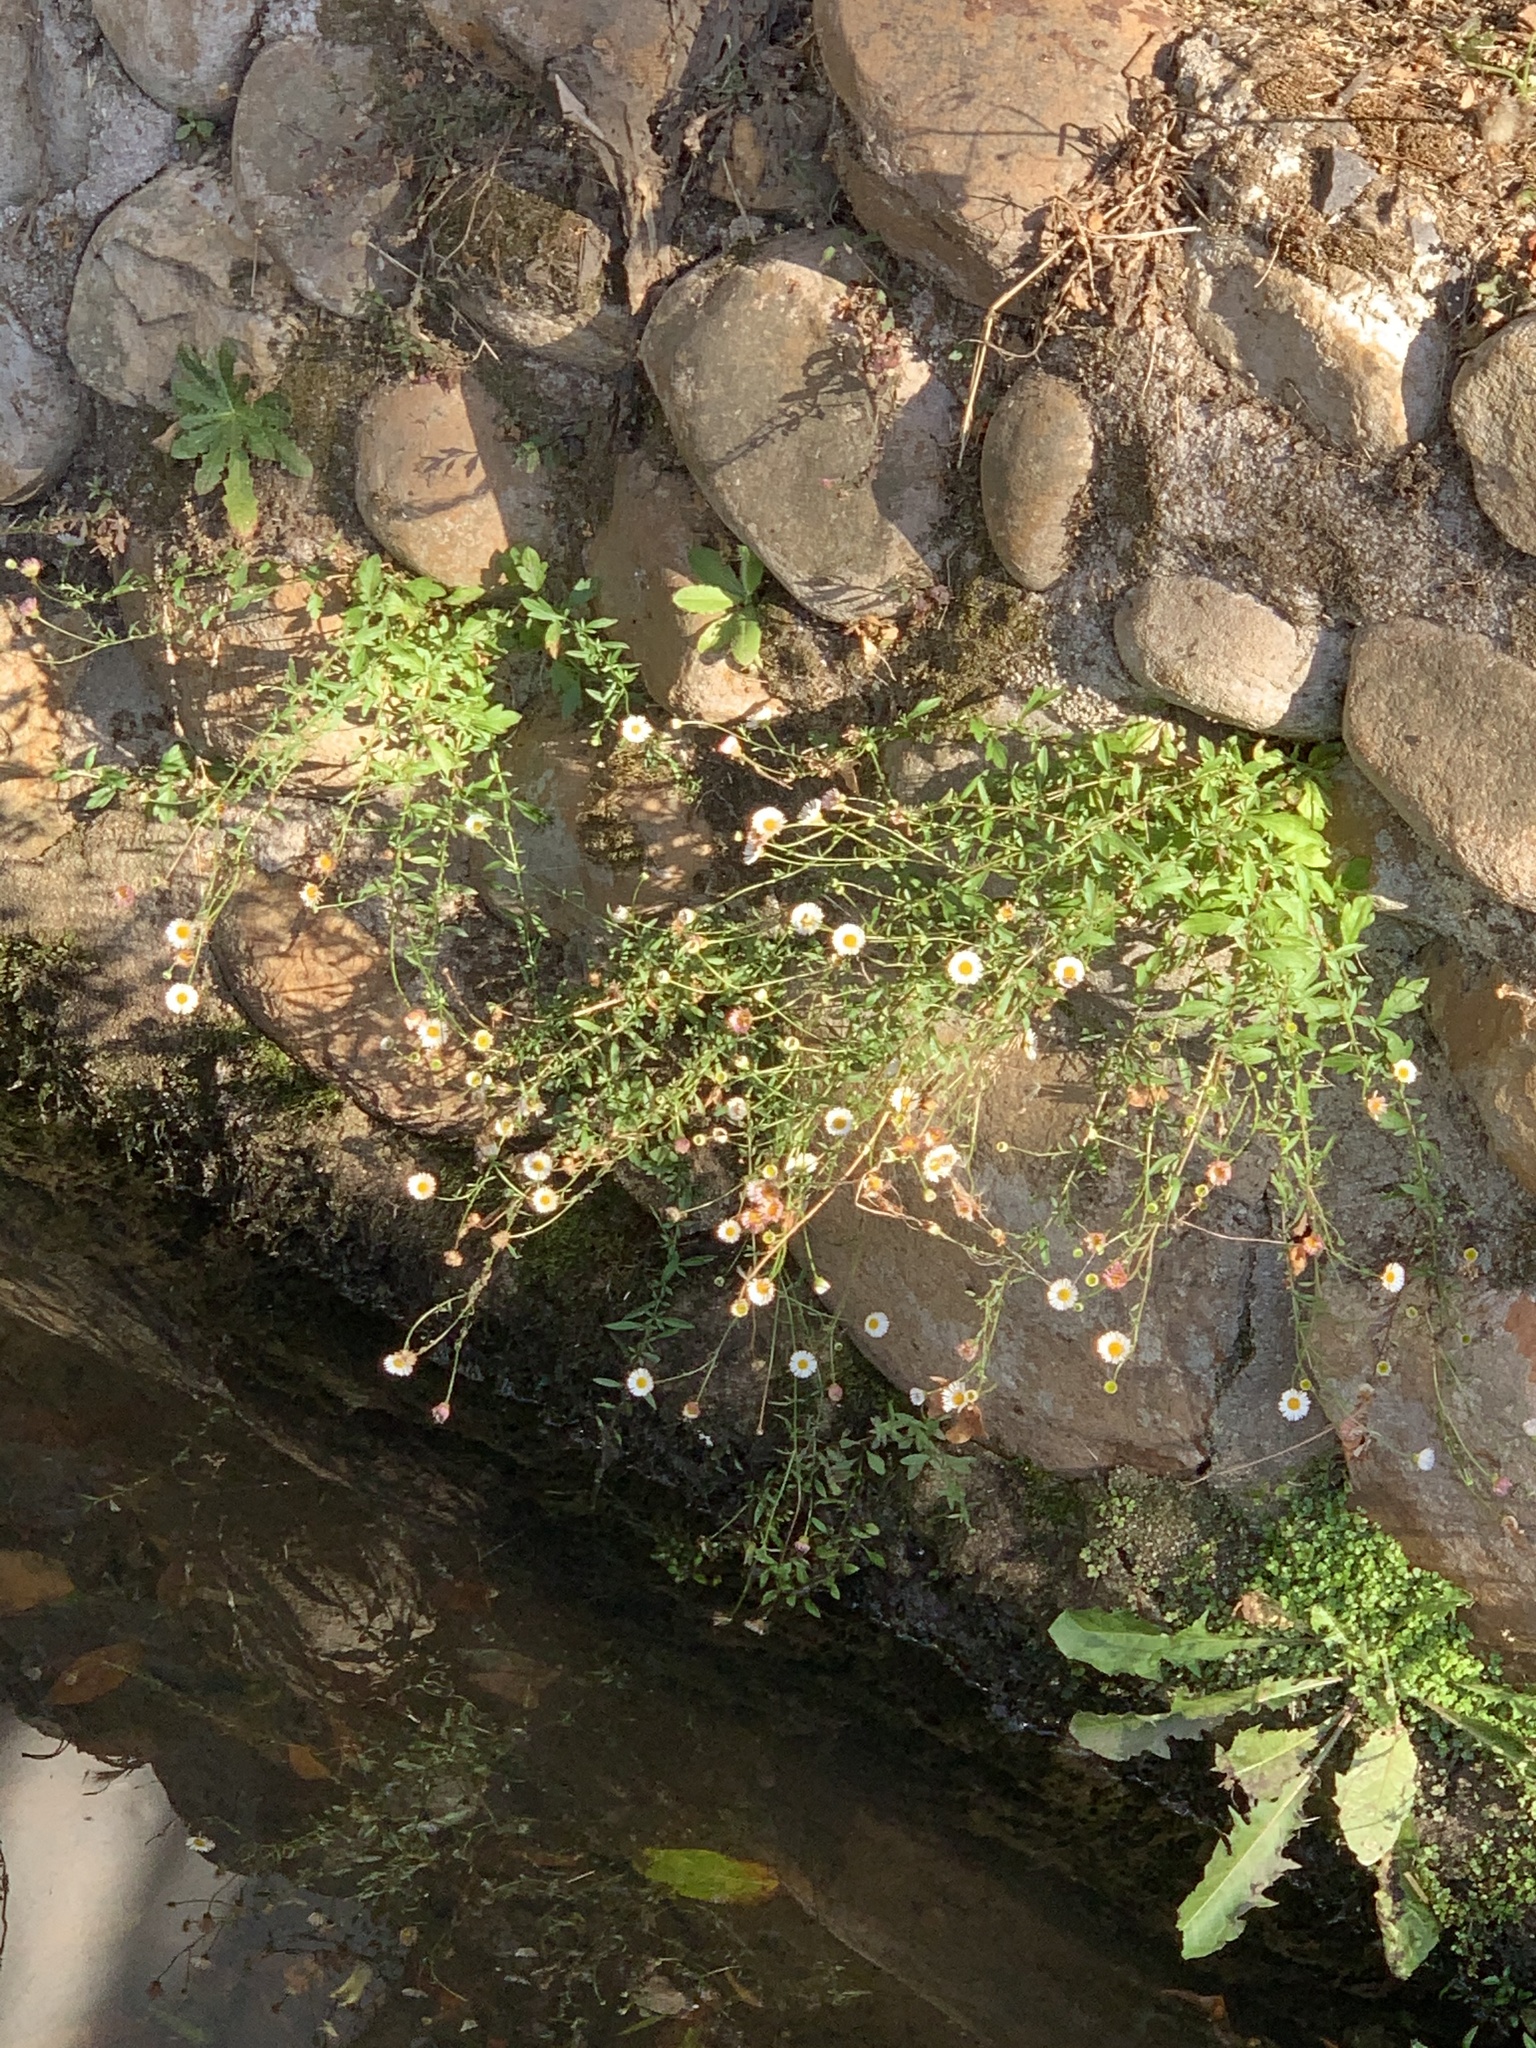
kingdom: Plantae
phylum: Tracheophyta
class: Magnoliopsida
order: Asterales
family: Asteraceae
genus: Erigeron
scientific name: Erigeron karvinskianus
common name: Mexican fleabane
